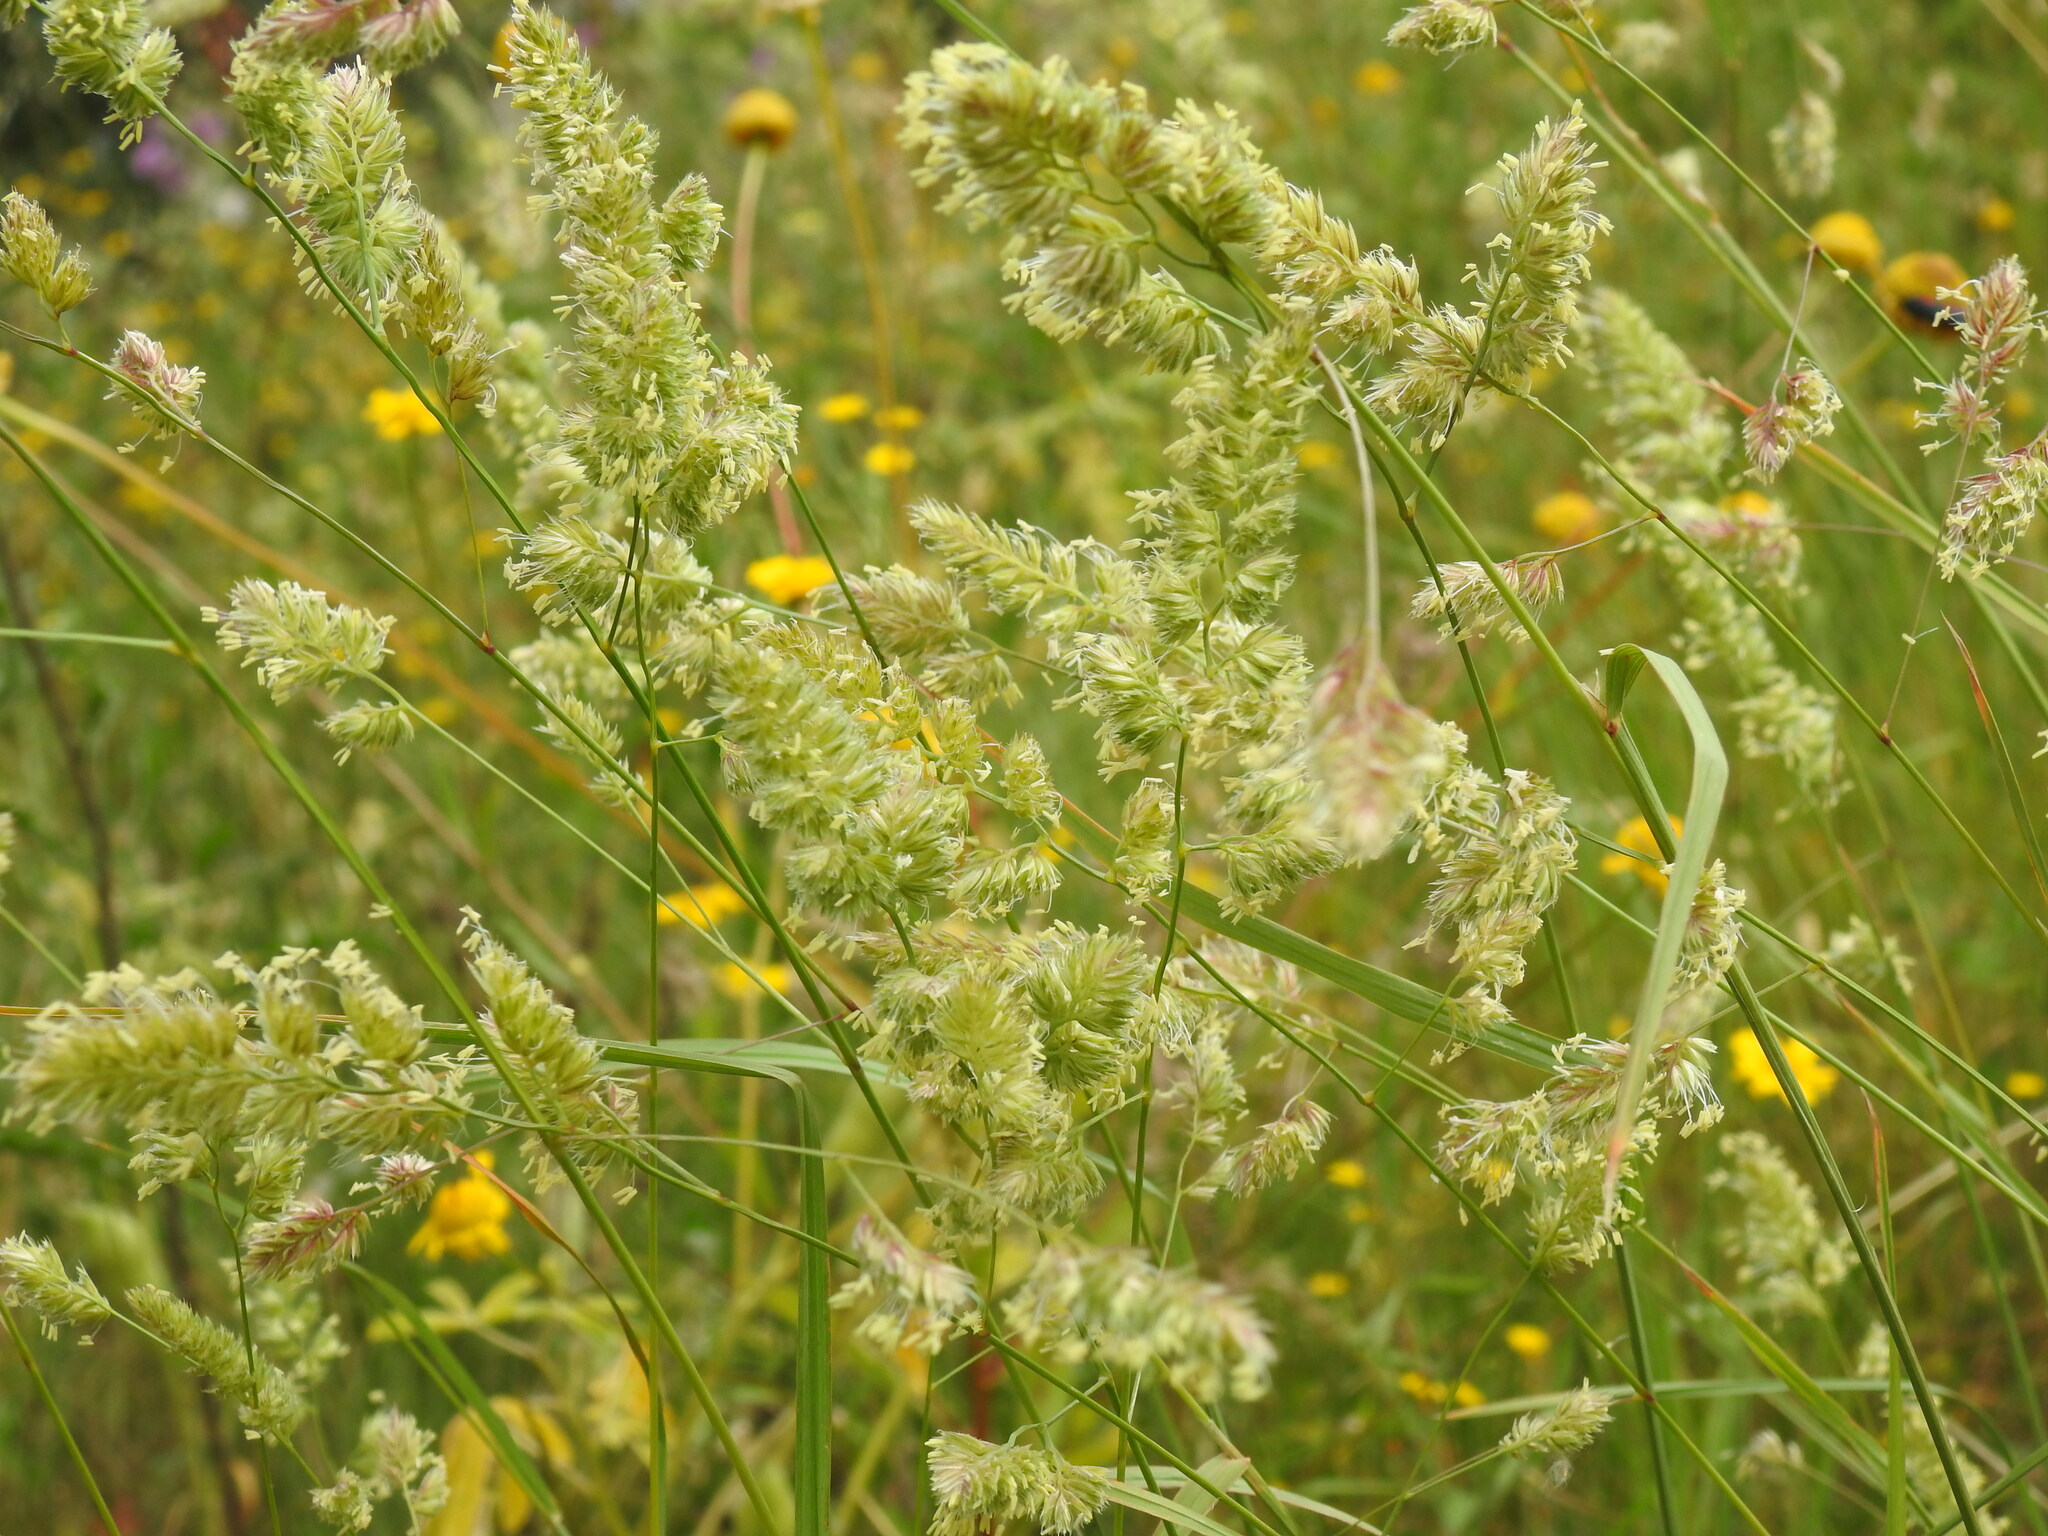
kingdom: Plantae
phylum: Tracheophyta
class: Liliopsida
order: Poales
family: Poaceae
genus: Dactylis
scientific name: Dactylis glomerata
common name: Orchardgrass
